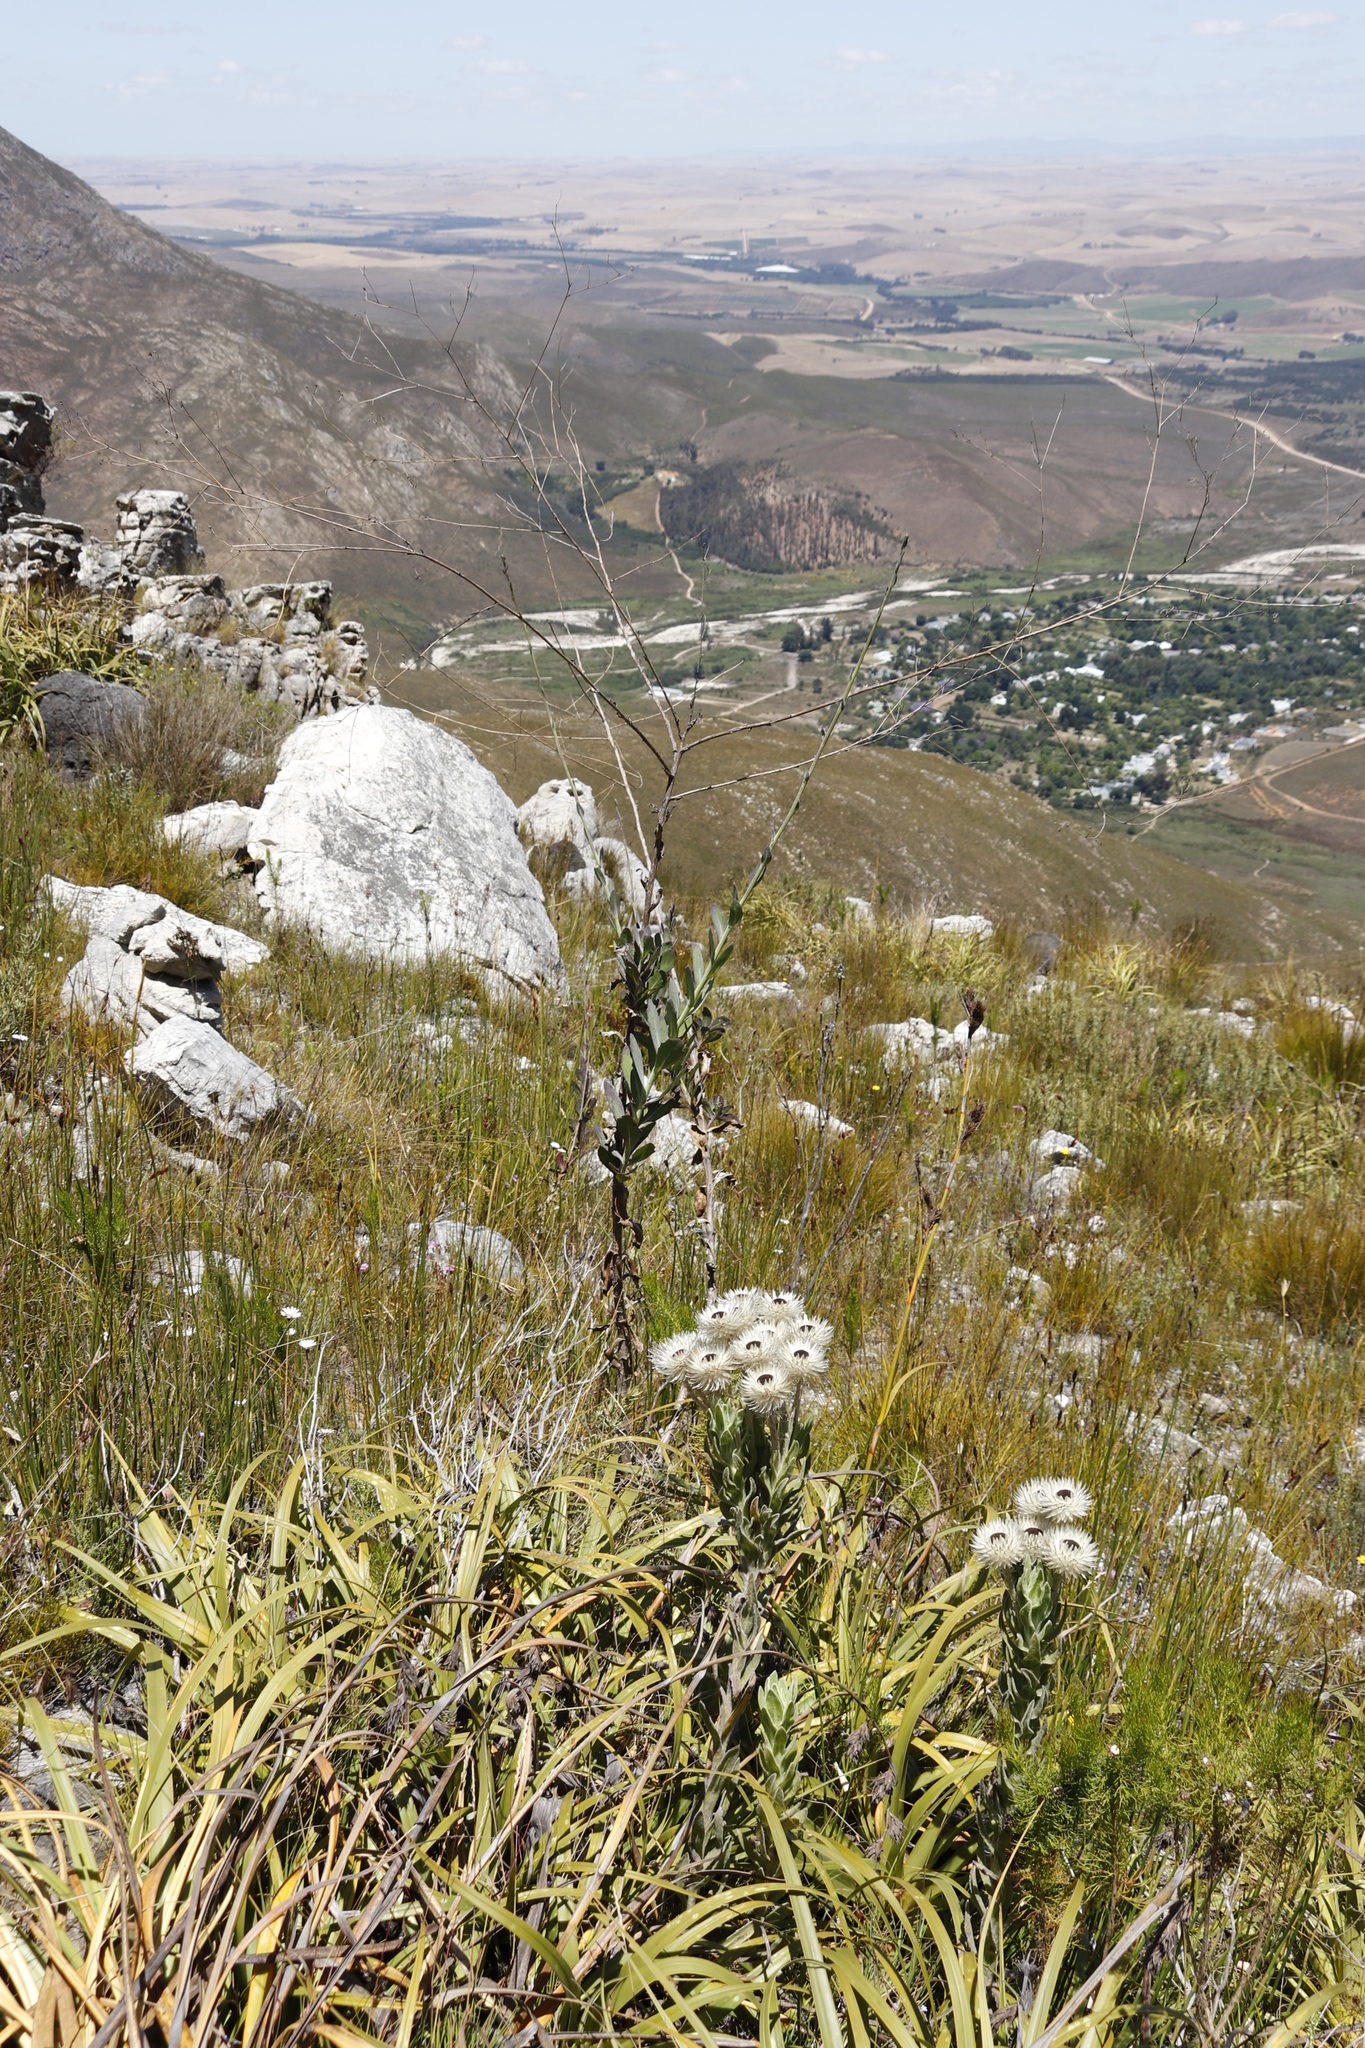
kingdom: Plantae
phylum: Tracheophyta
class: Magnoliopsida
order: Asterales
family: Asteraceae
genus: Othonna
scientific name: Othonna quinquedentata
